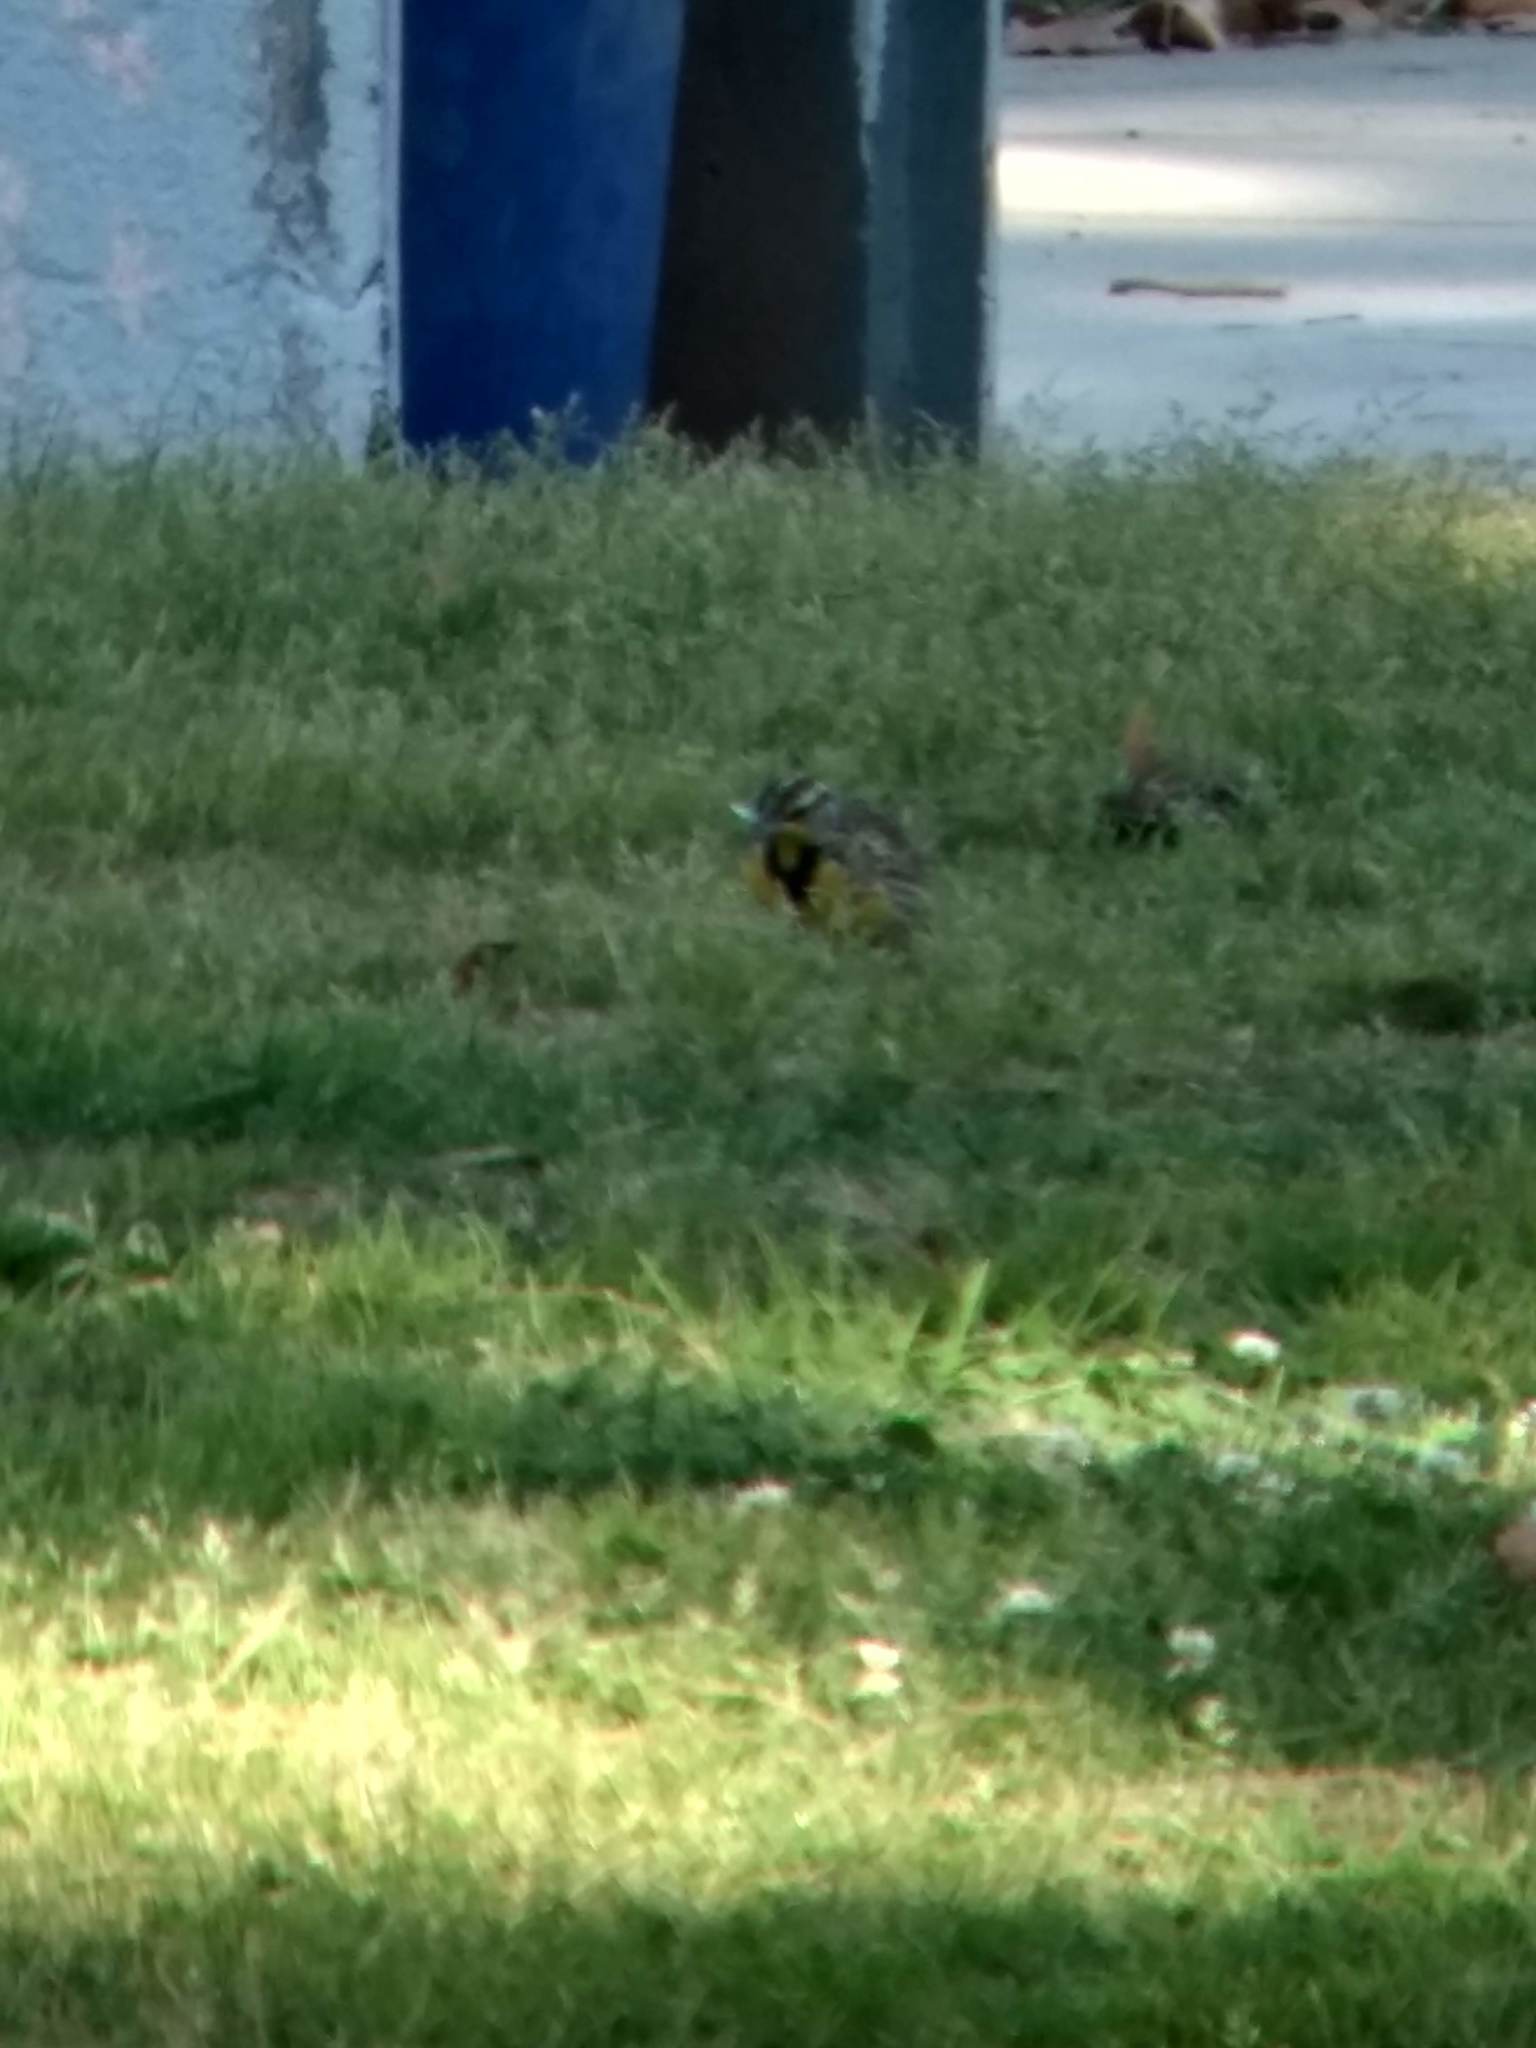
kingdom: Animalia
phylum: Chordata
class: Aves
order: Passeriformes
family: Icteridae
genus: Sturnella
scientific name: Sturnella neglecta
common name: Western meadowlark
